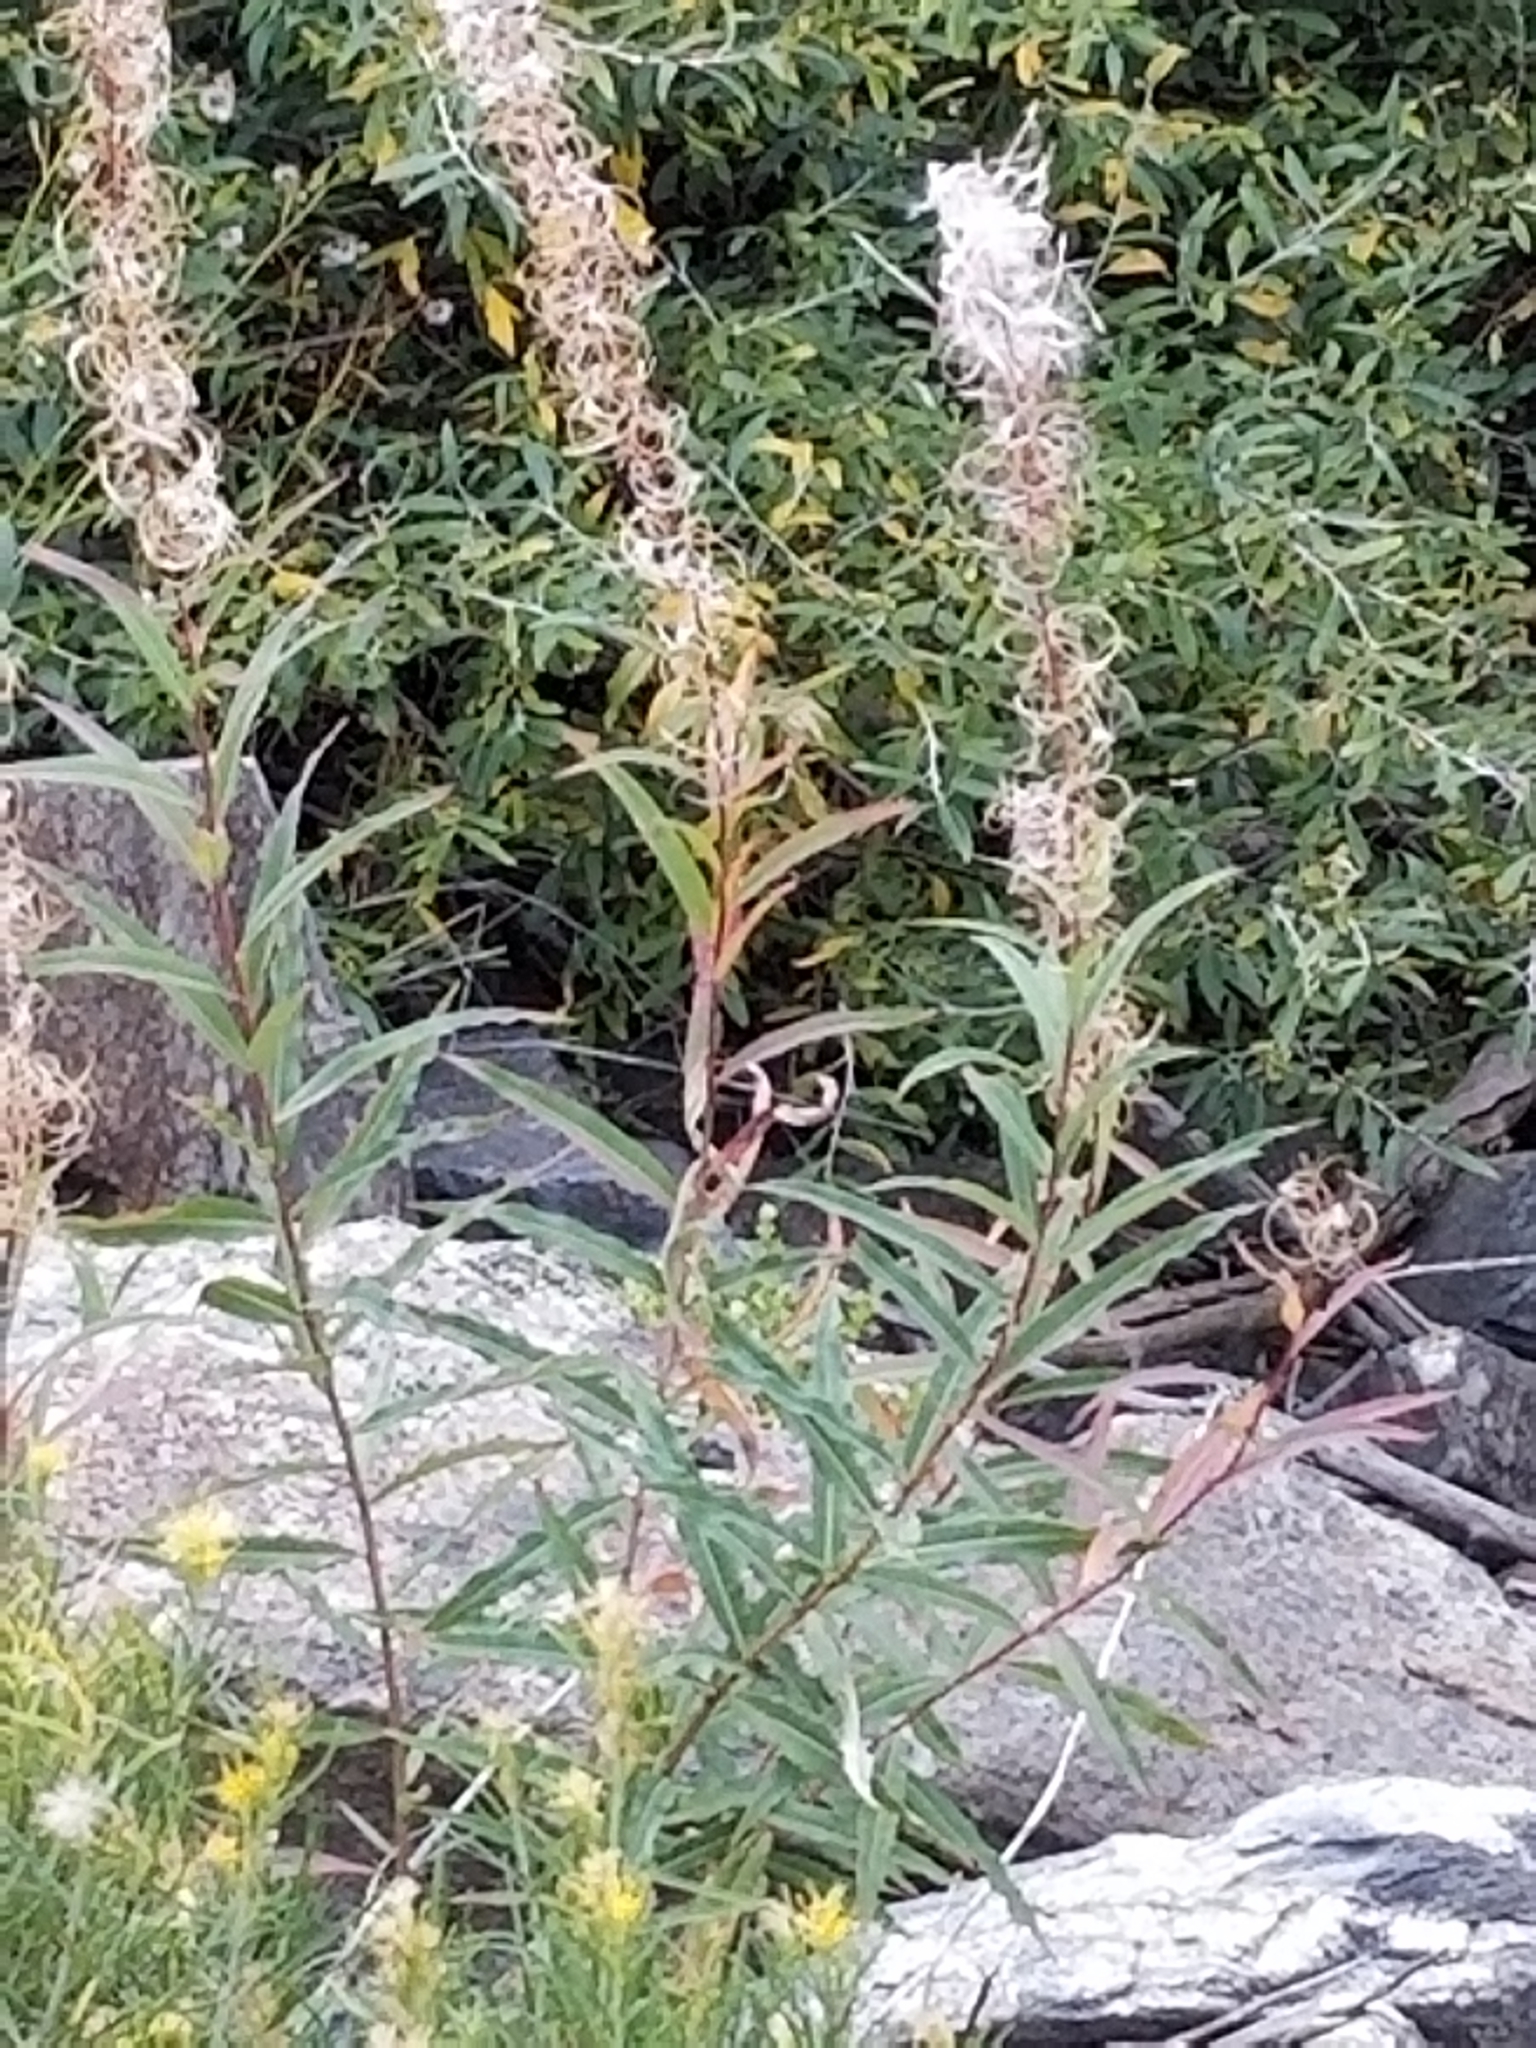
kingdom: Plantae
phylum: Tracheophyta
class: Magnoliopsida
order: Myrtales
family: Onagraceae
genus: Chamaenerion
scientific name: Chamaenerion angustifolium
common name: Fireweed
